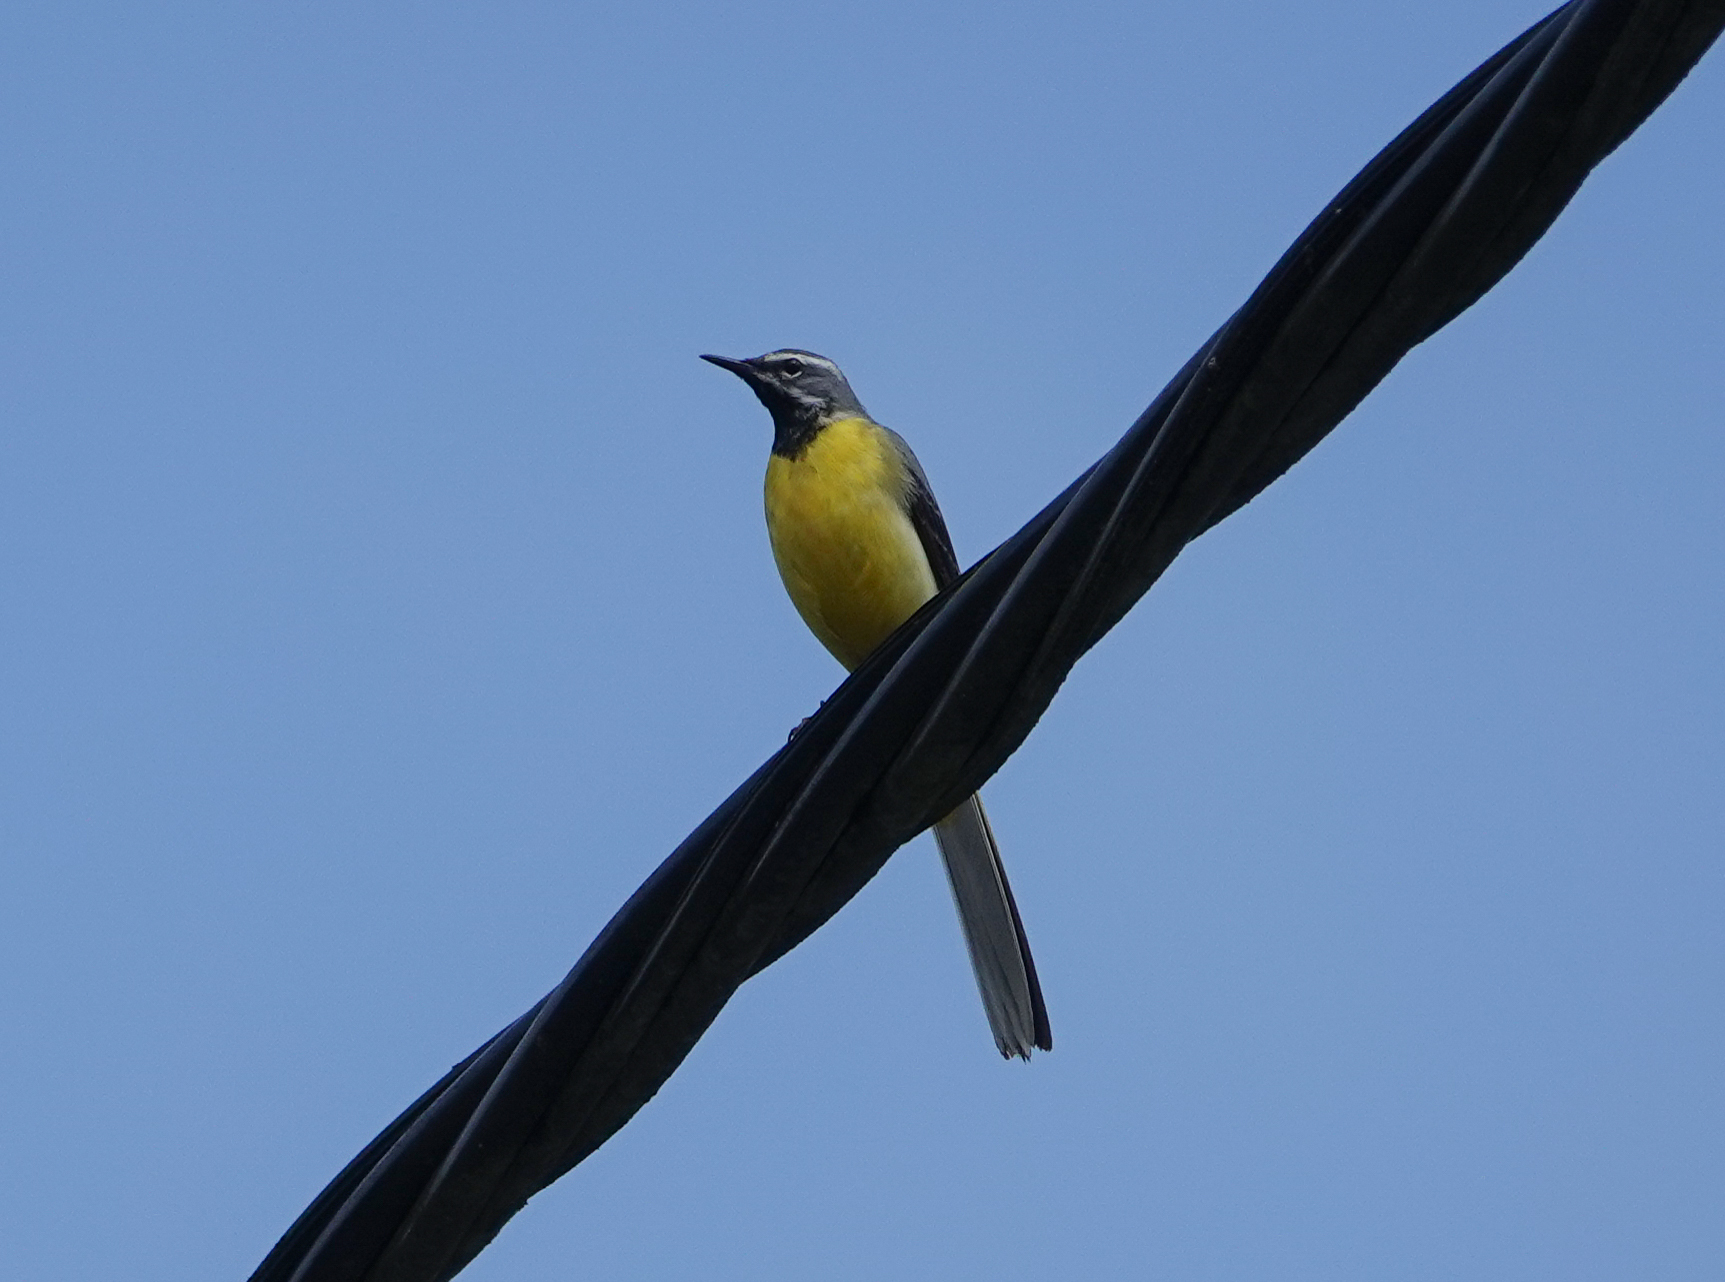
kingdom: Animalia
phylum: Chordata
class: Aves
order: Passeriformes
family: Motacillidae
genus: Motacilla
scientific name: Motacilla cinerea
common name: Grey wagtail
